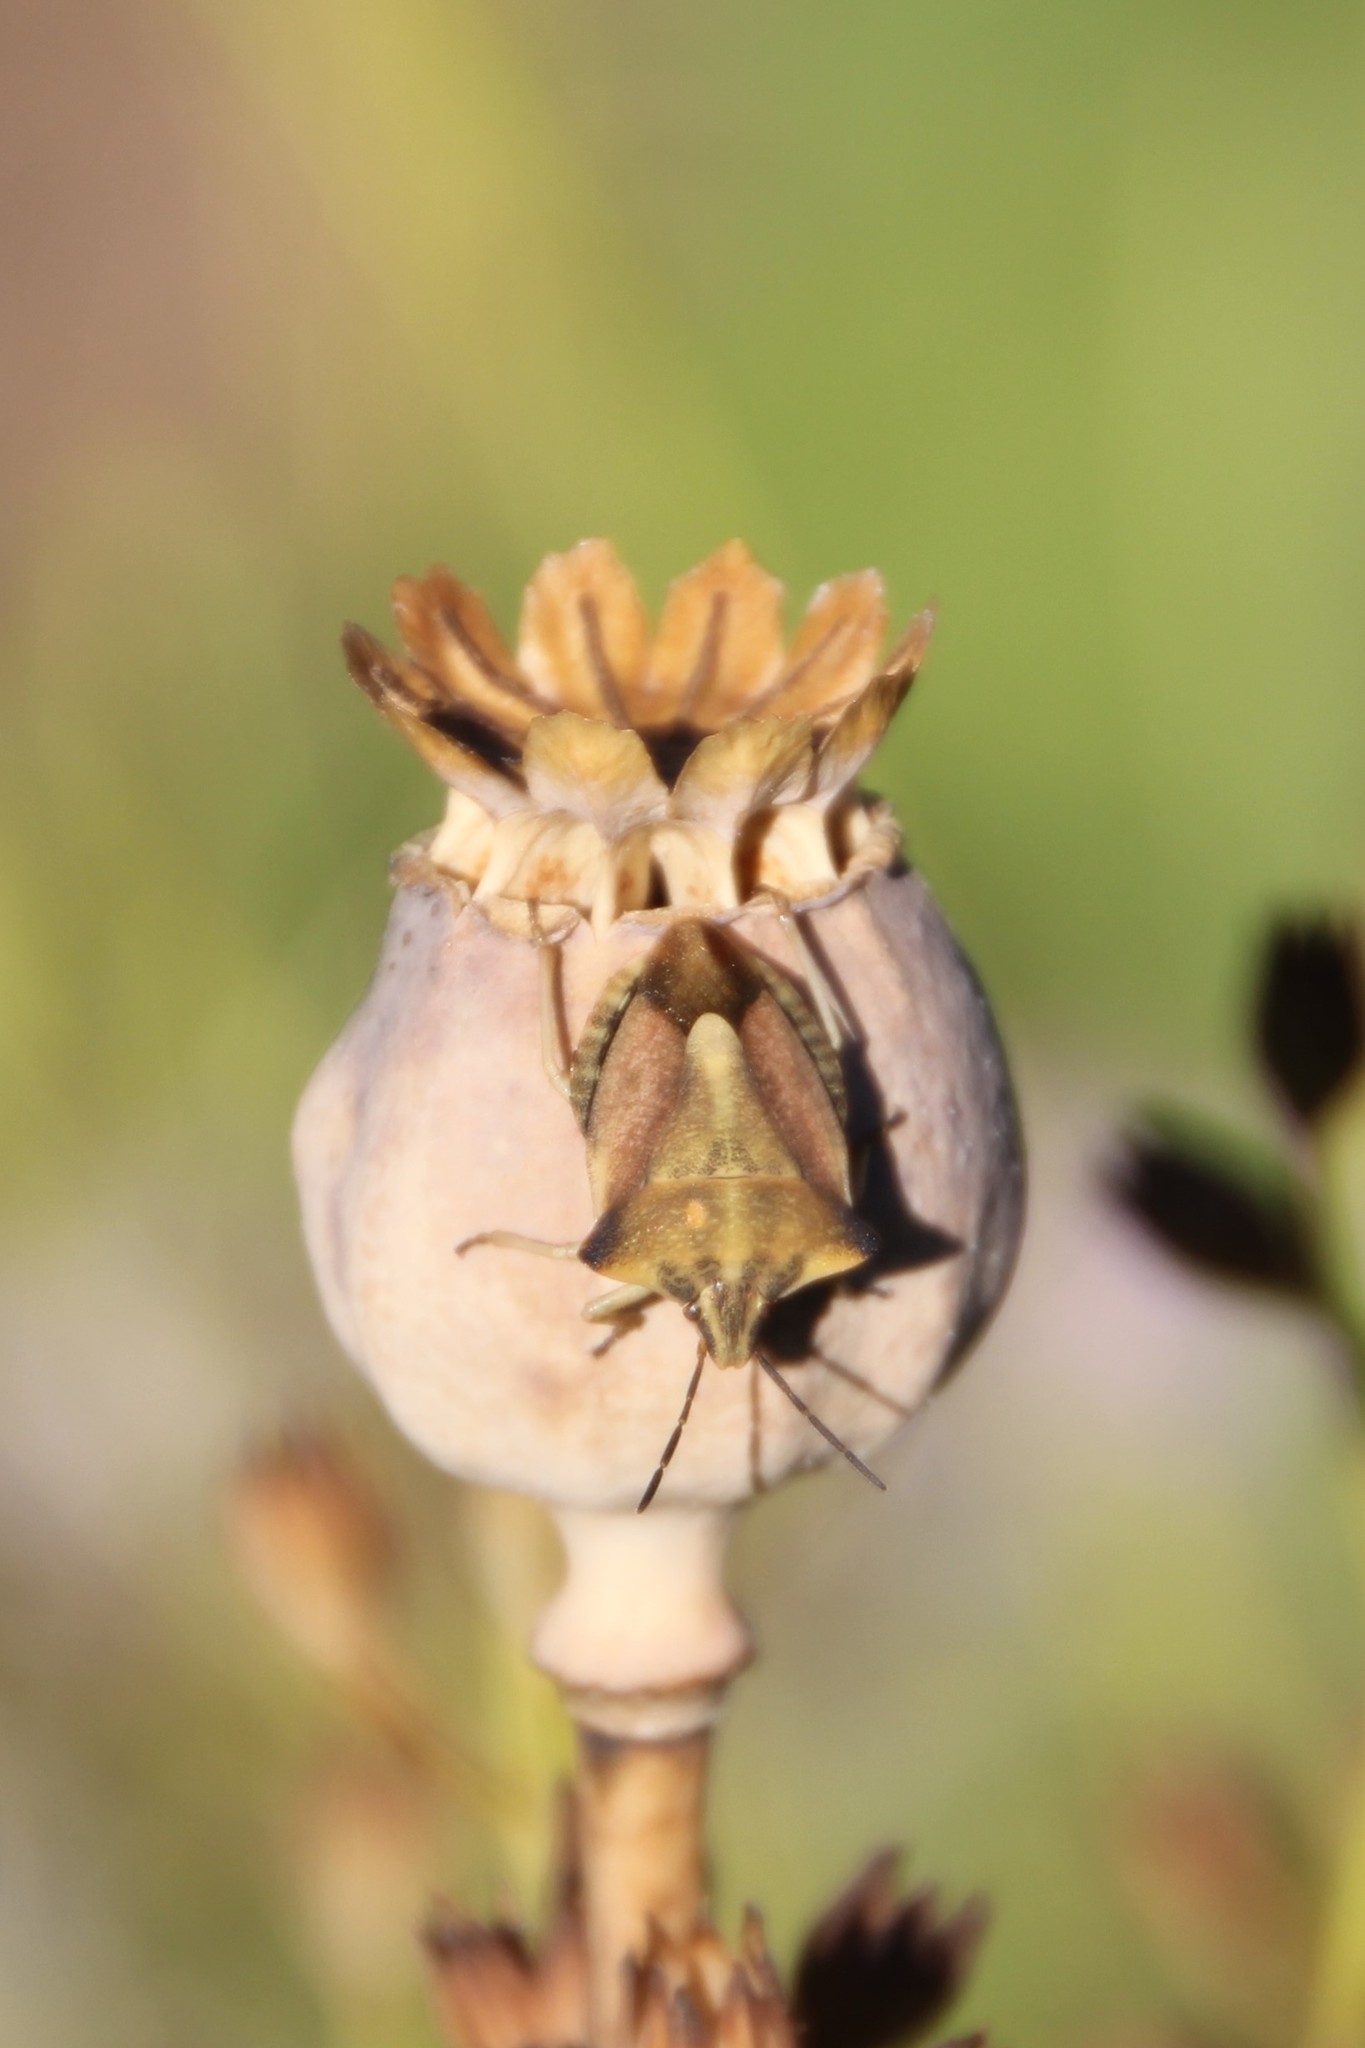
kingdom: Animalia
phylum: Arthropoda
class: Insecta
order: Hemiptera
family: Pentatomidae
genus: Carpocoris
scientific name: Carpocoris fuscispinus
